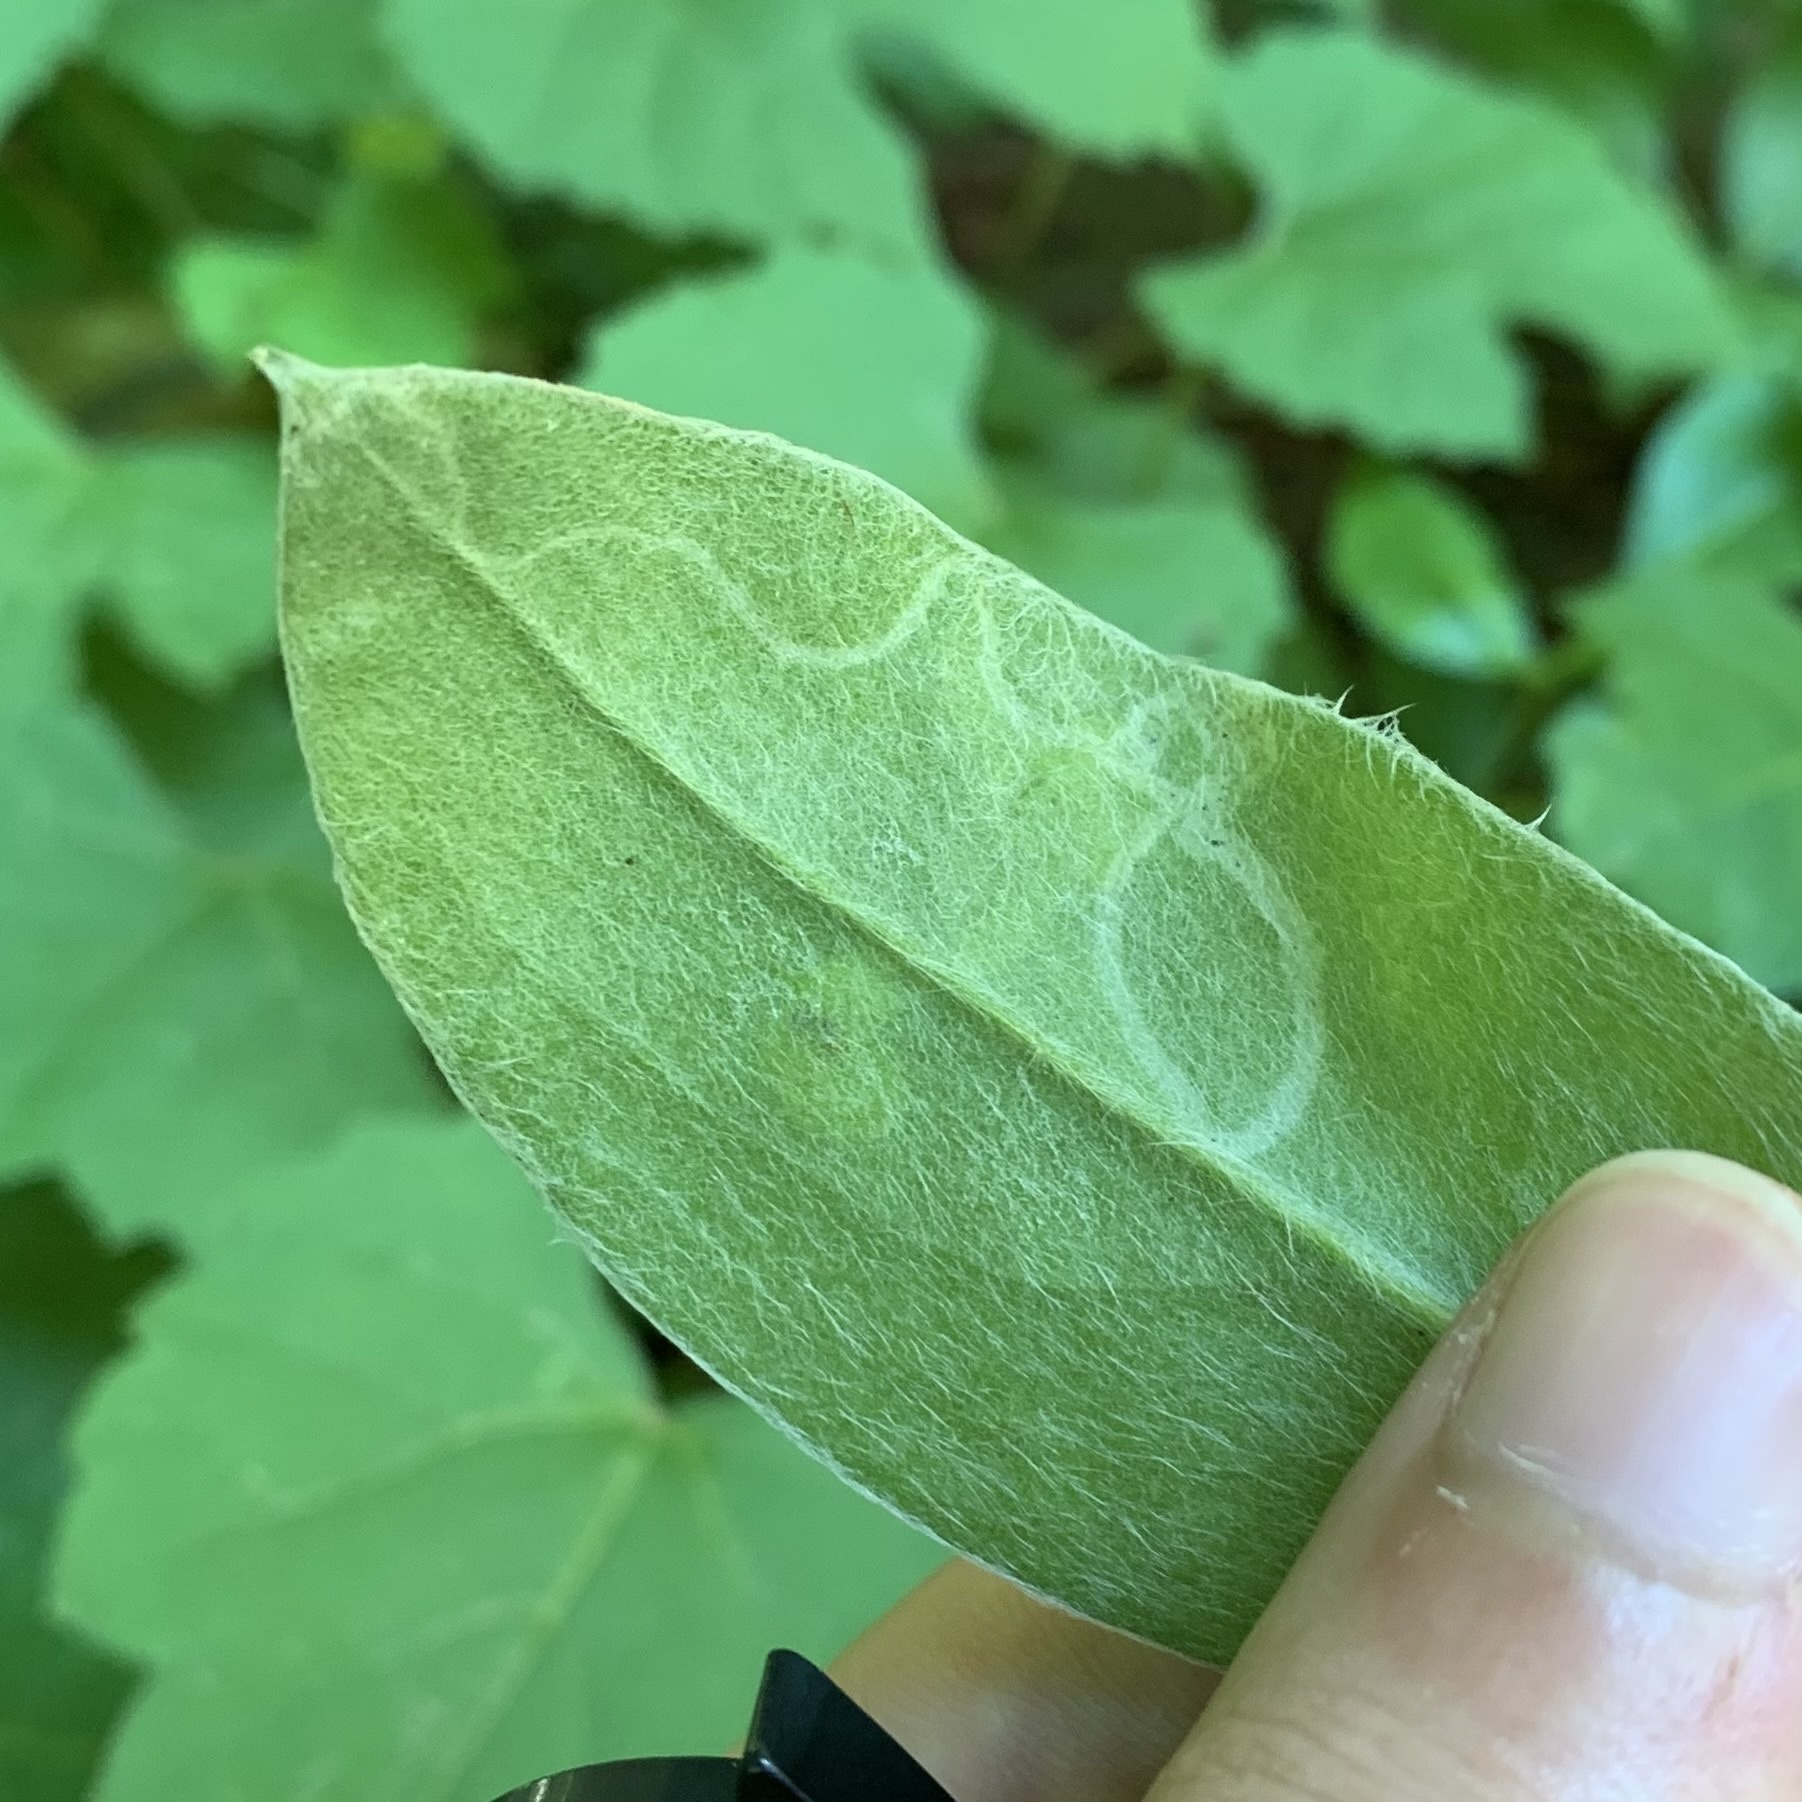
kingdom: Animalia
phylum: Arthropoda
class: Insecta
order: Diptera
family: Agromyzidae
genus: Amauromyza
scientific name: Amauromyza flavifrons
